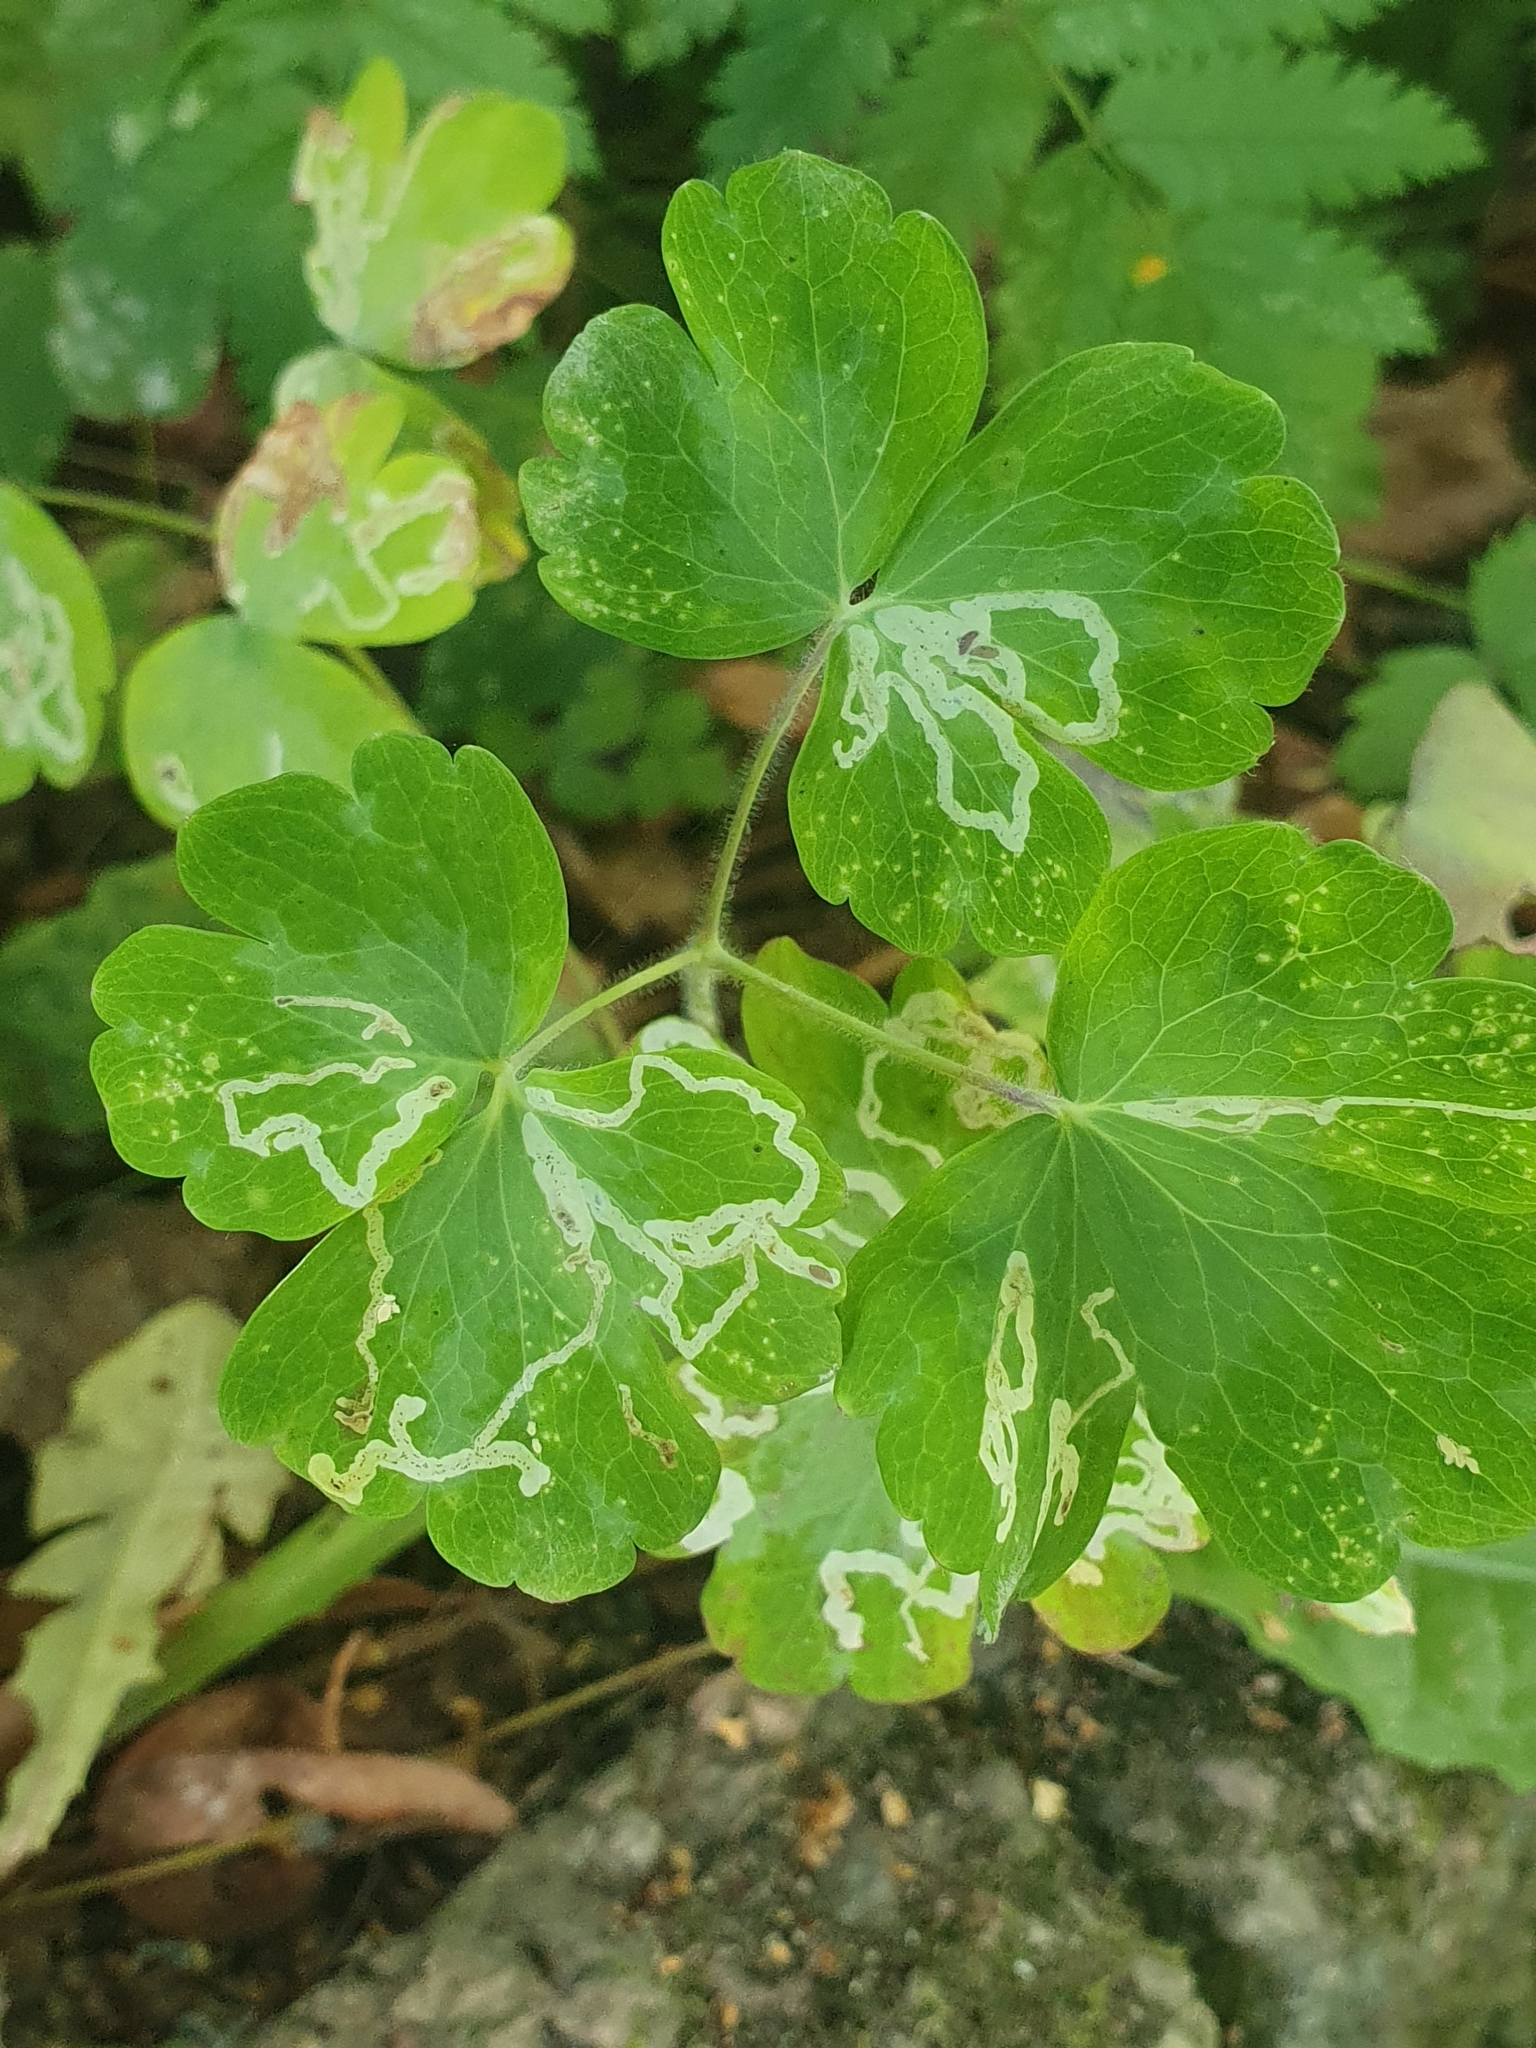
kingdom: Animalia
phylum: Arthropoda
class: Insecta
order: Diptera
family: Agromyzidae
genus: Phytomyza
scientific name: Phytomyza ancholiae
